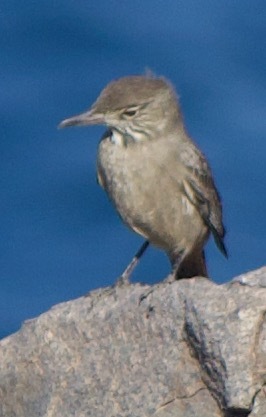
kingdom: Animalia
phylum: Chordata
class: Aves
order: Passeriformes
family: Tyrannidae
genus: Agriornis
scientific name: Agriornis lividus
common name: Great shrike-tyrant
